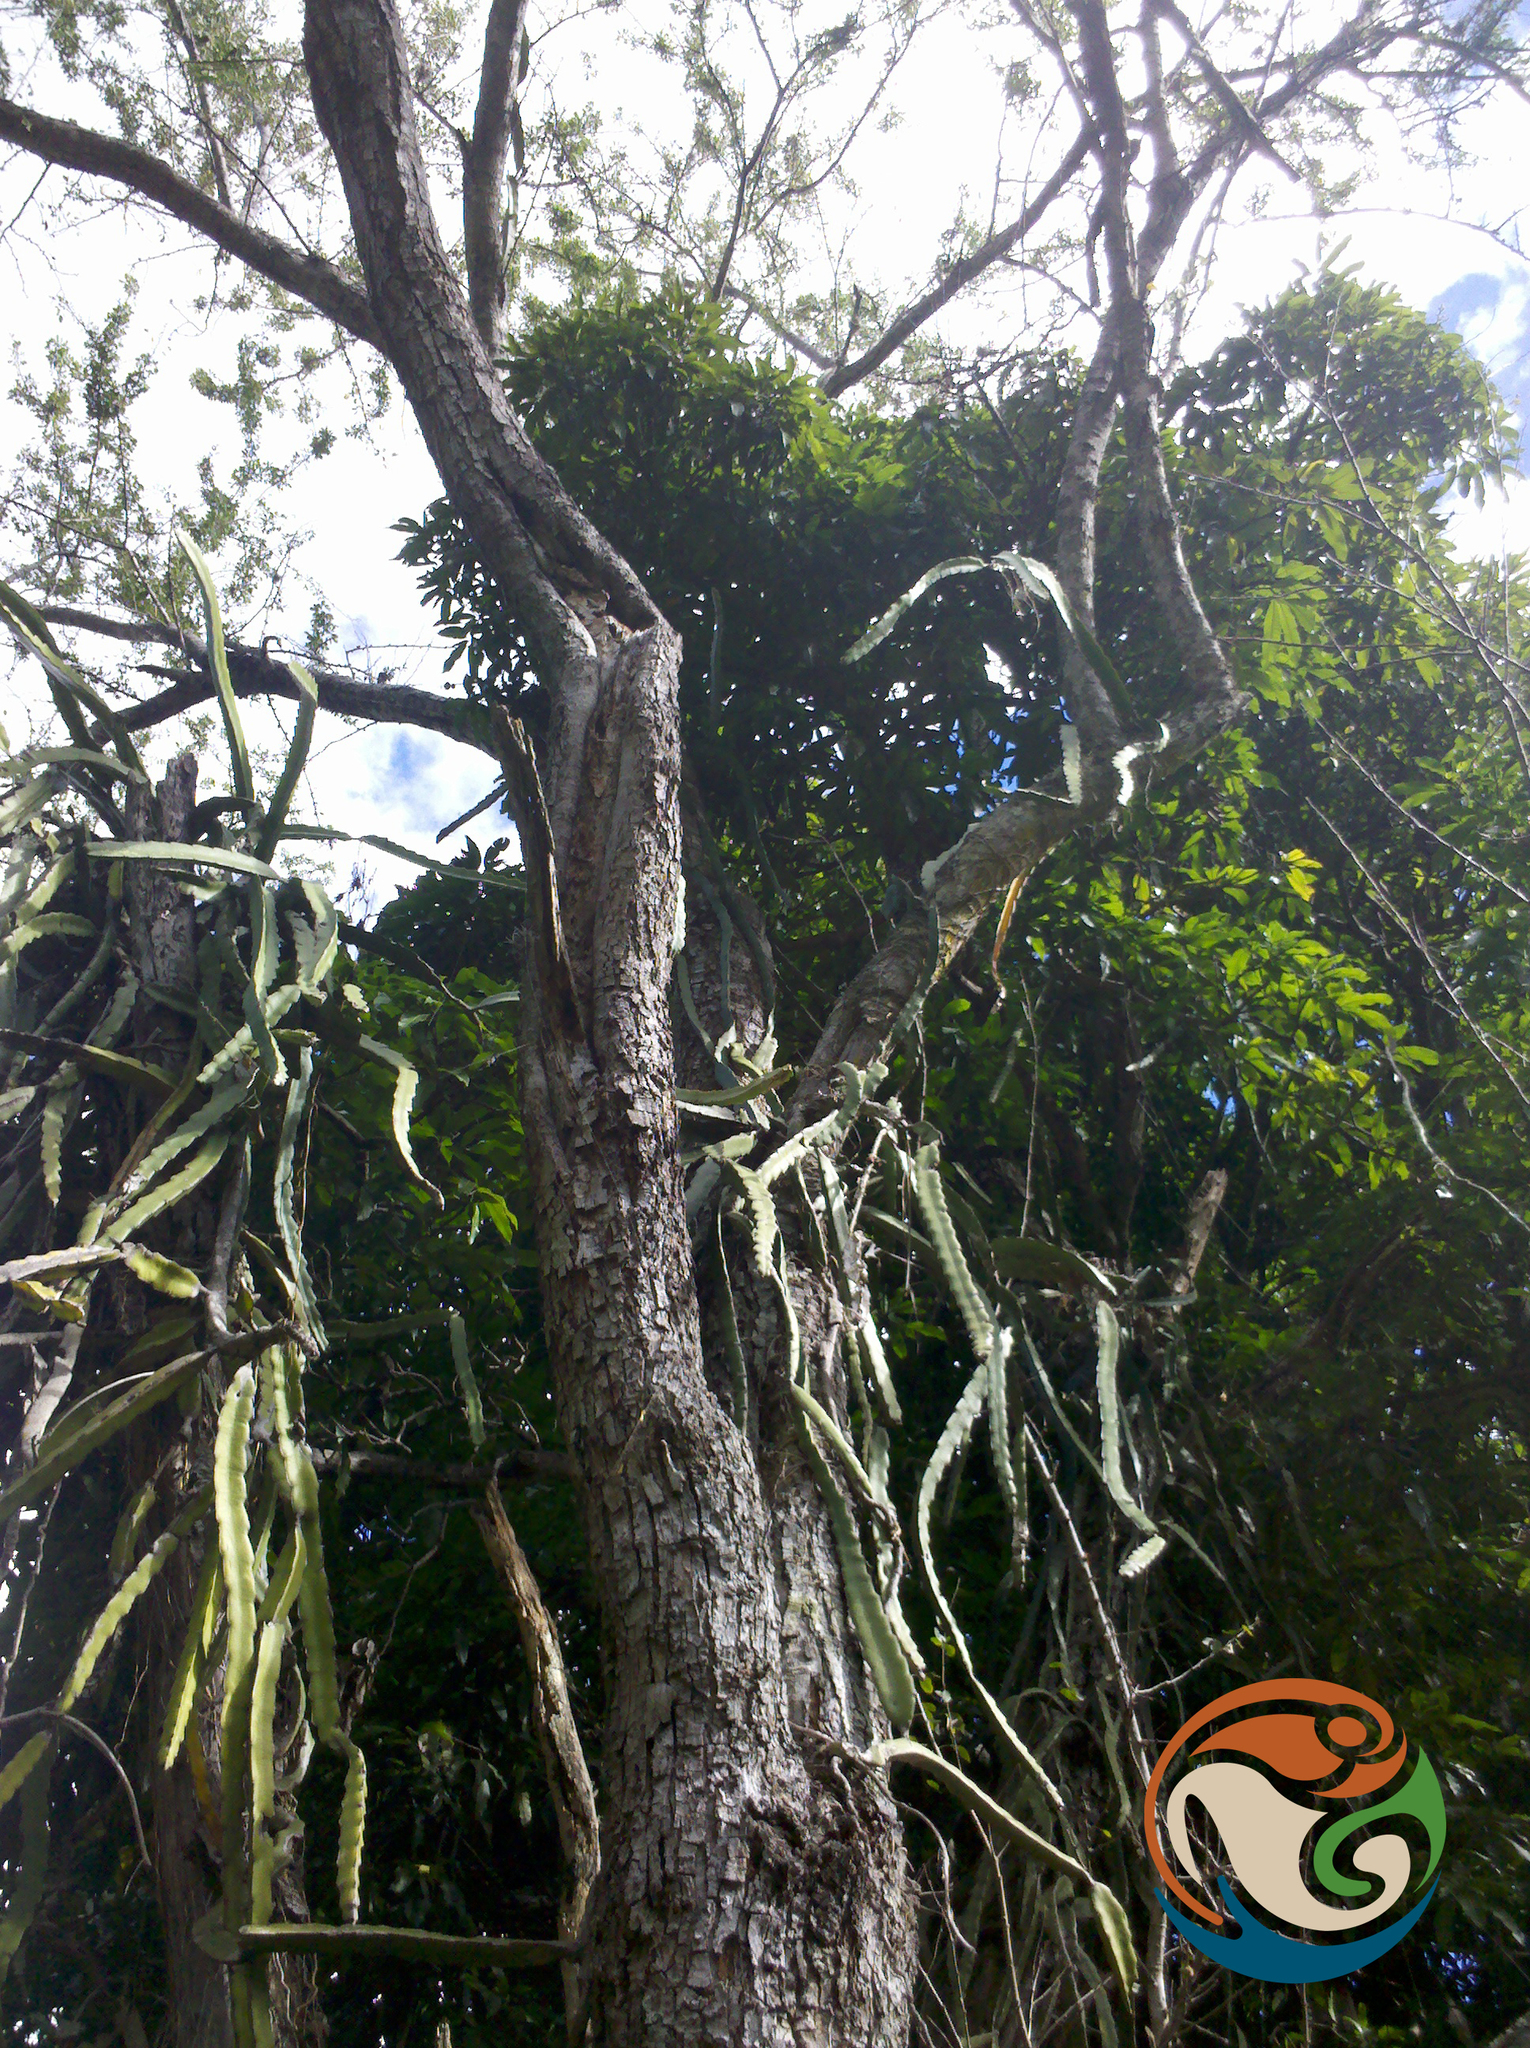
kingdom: Plantae
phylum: Tracheophyta
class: Magnoliopsida
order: Caryophyllales
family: Cactaceae
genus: Selenicereus
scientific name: Selenicereus undatus
